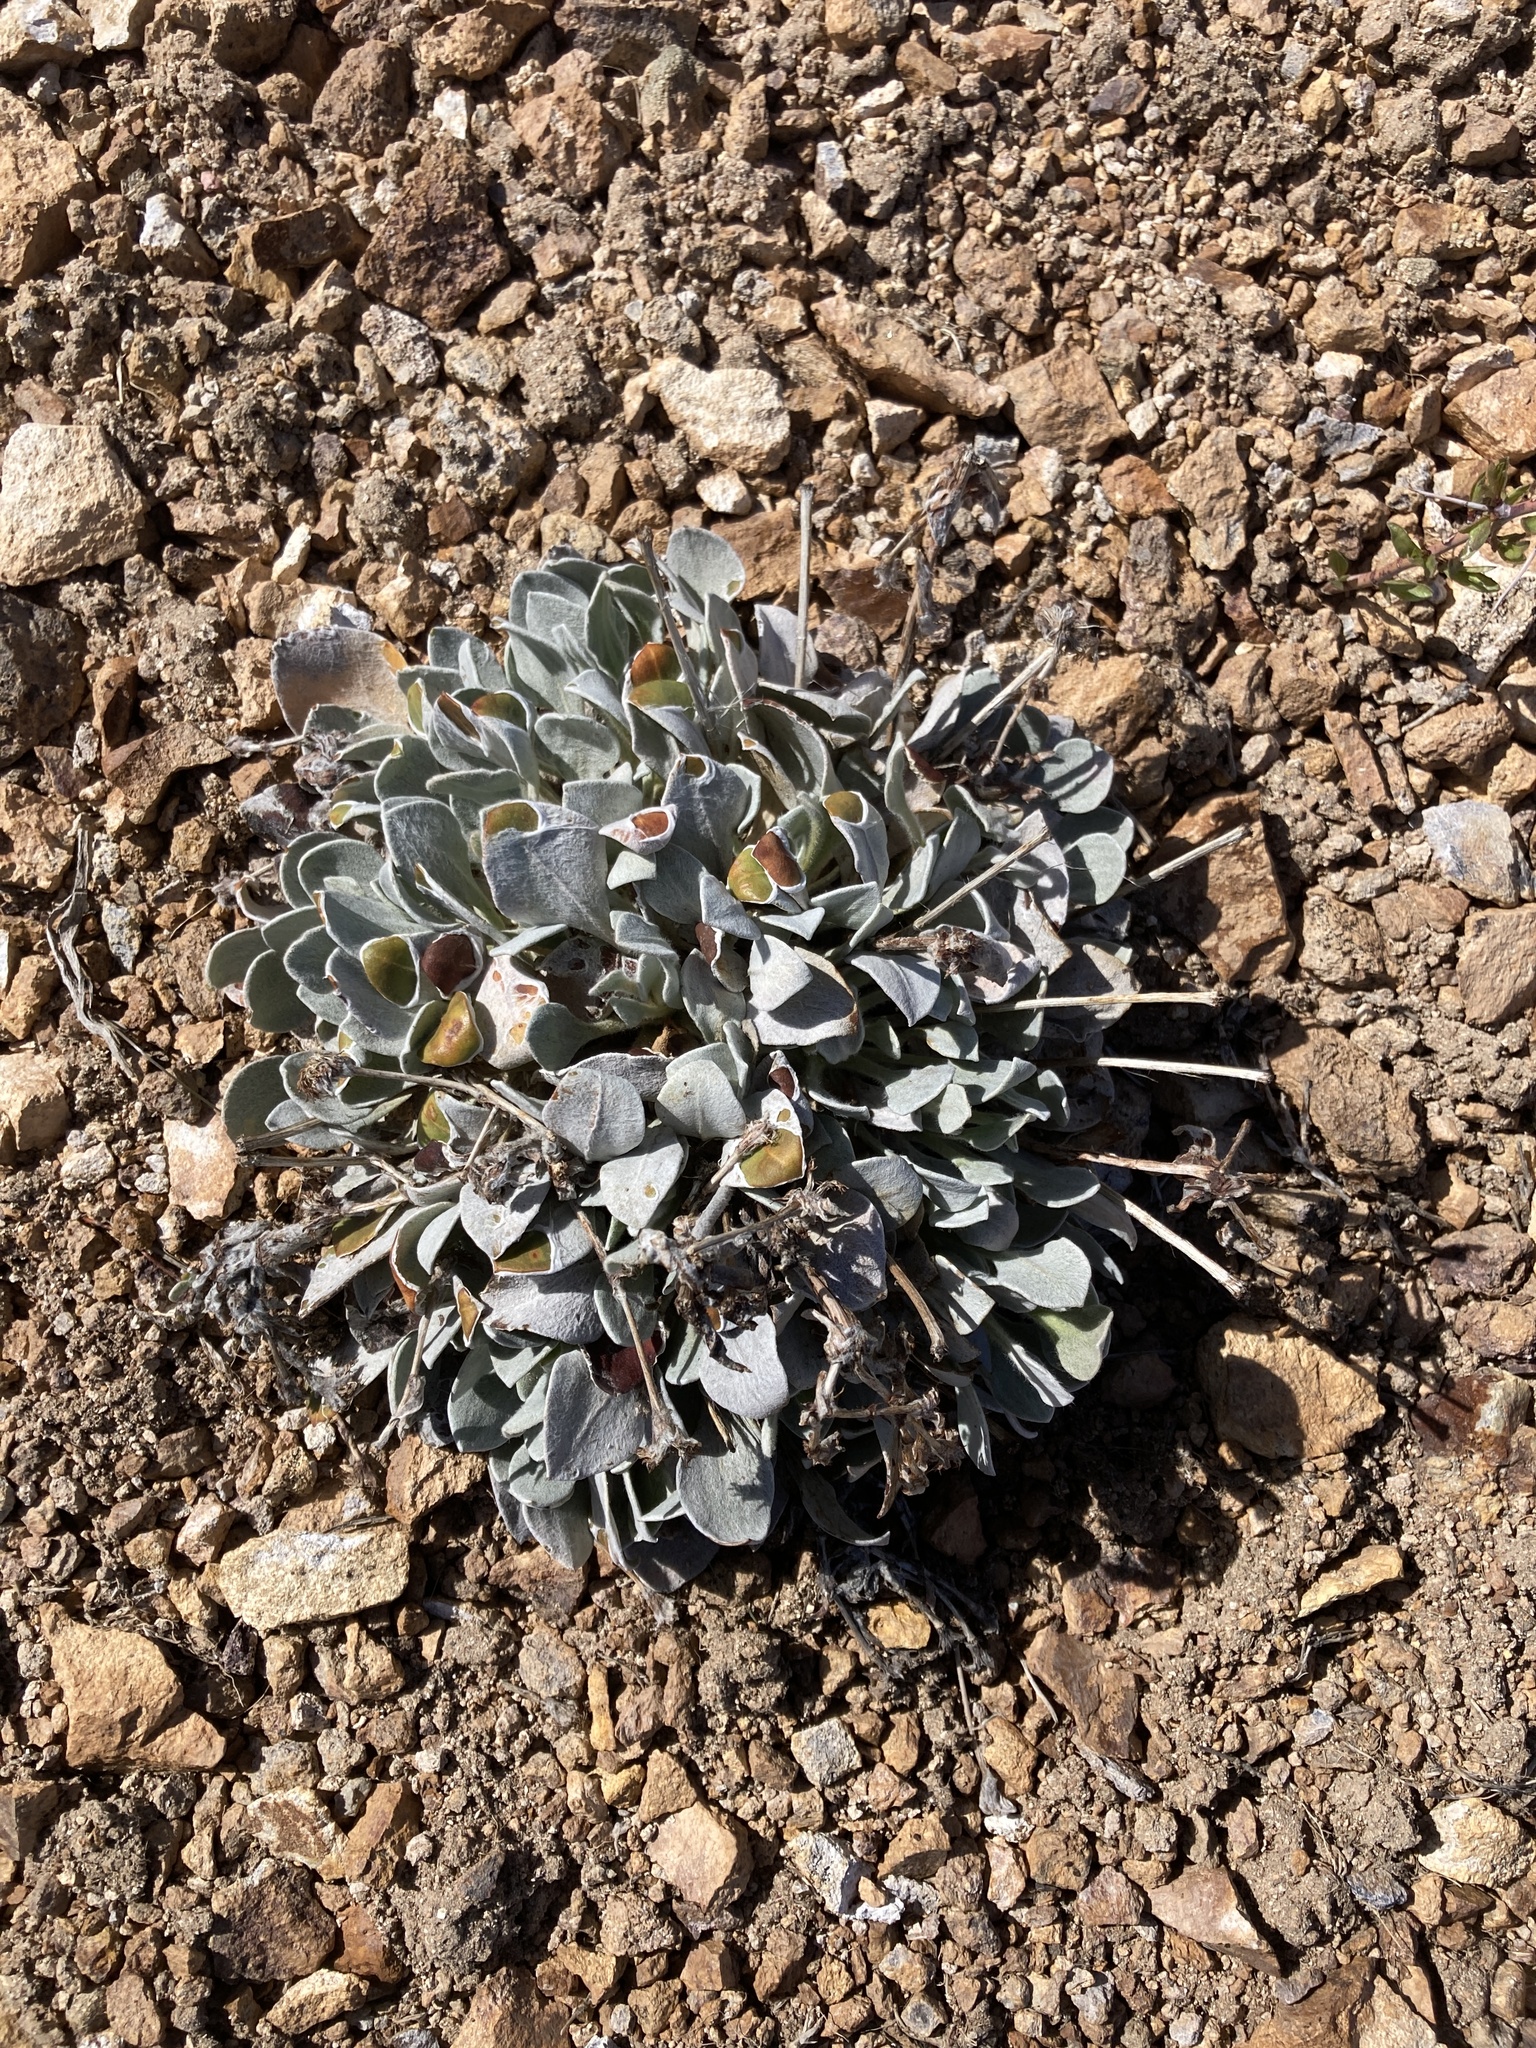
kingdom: Plantae
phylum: Tracheophyta
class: Magnoliopsida
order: Caryophyllales
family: Polygonaceae
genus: Eriogonum
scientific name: Eriogonum robustum
